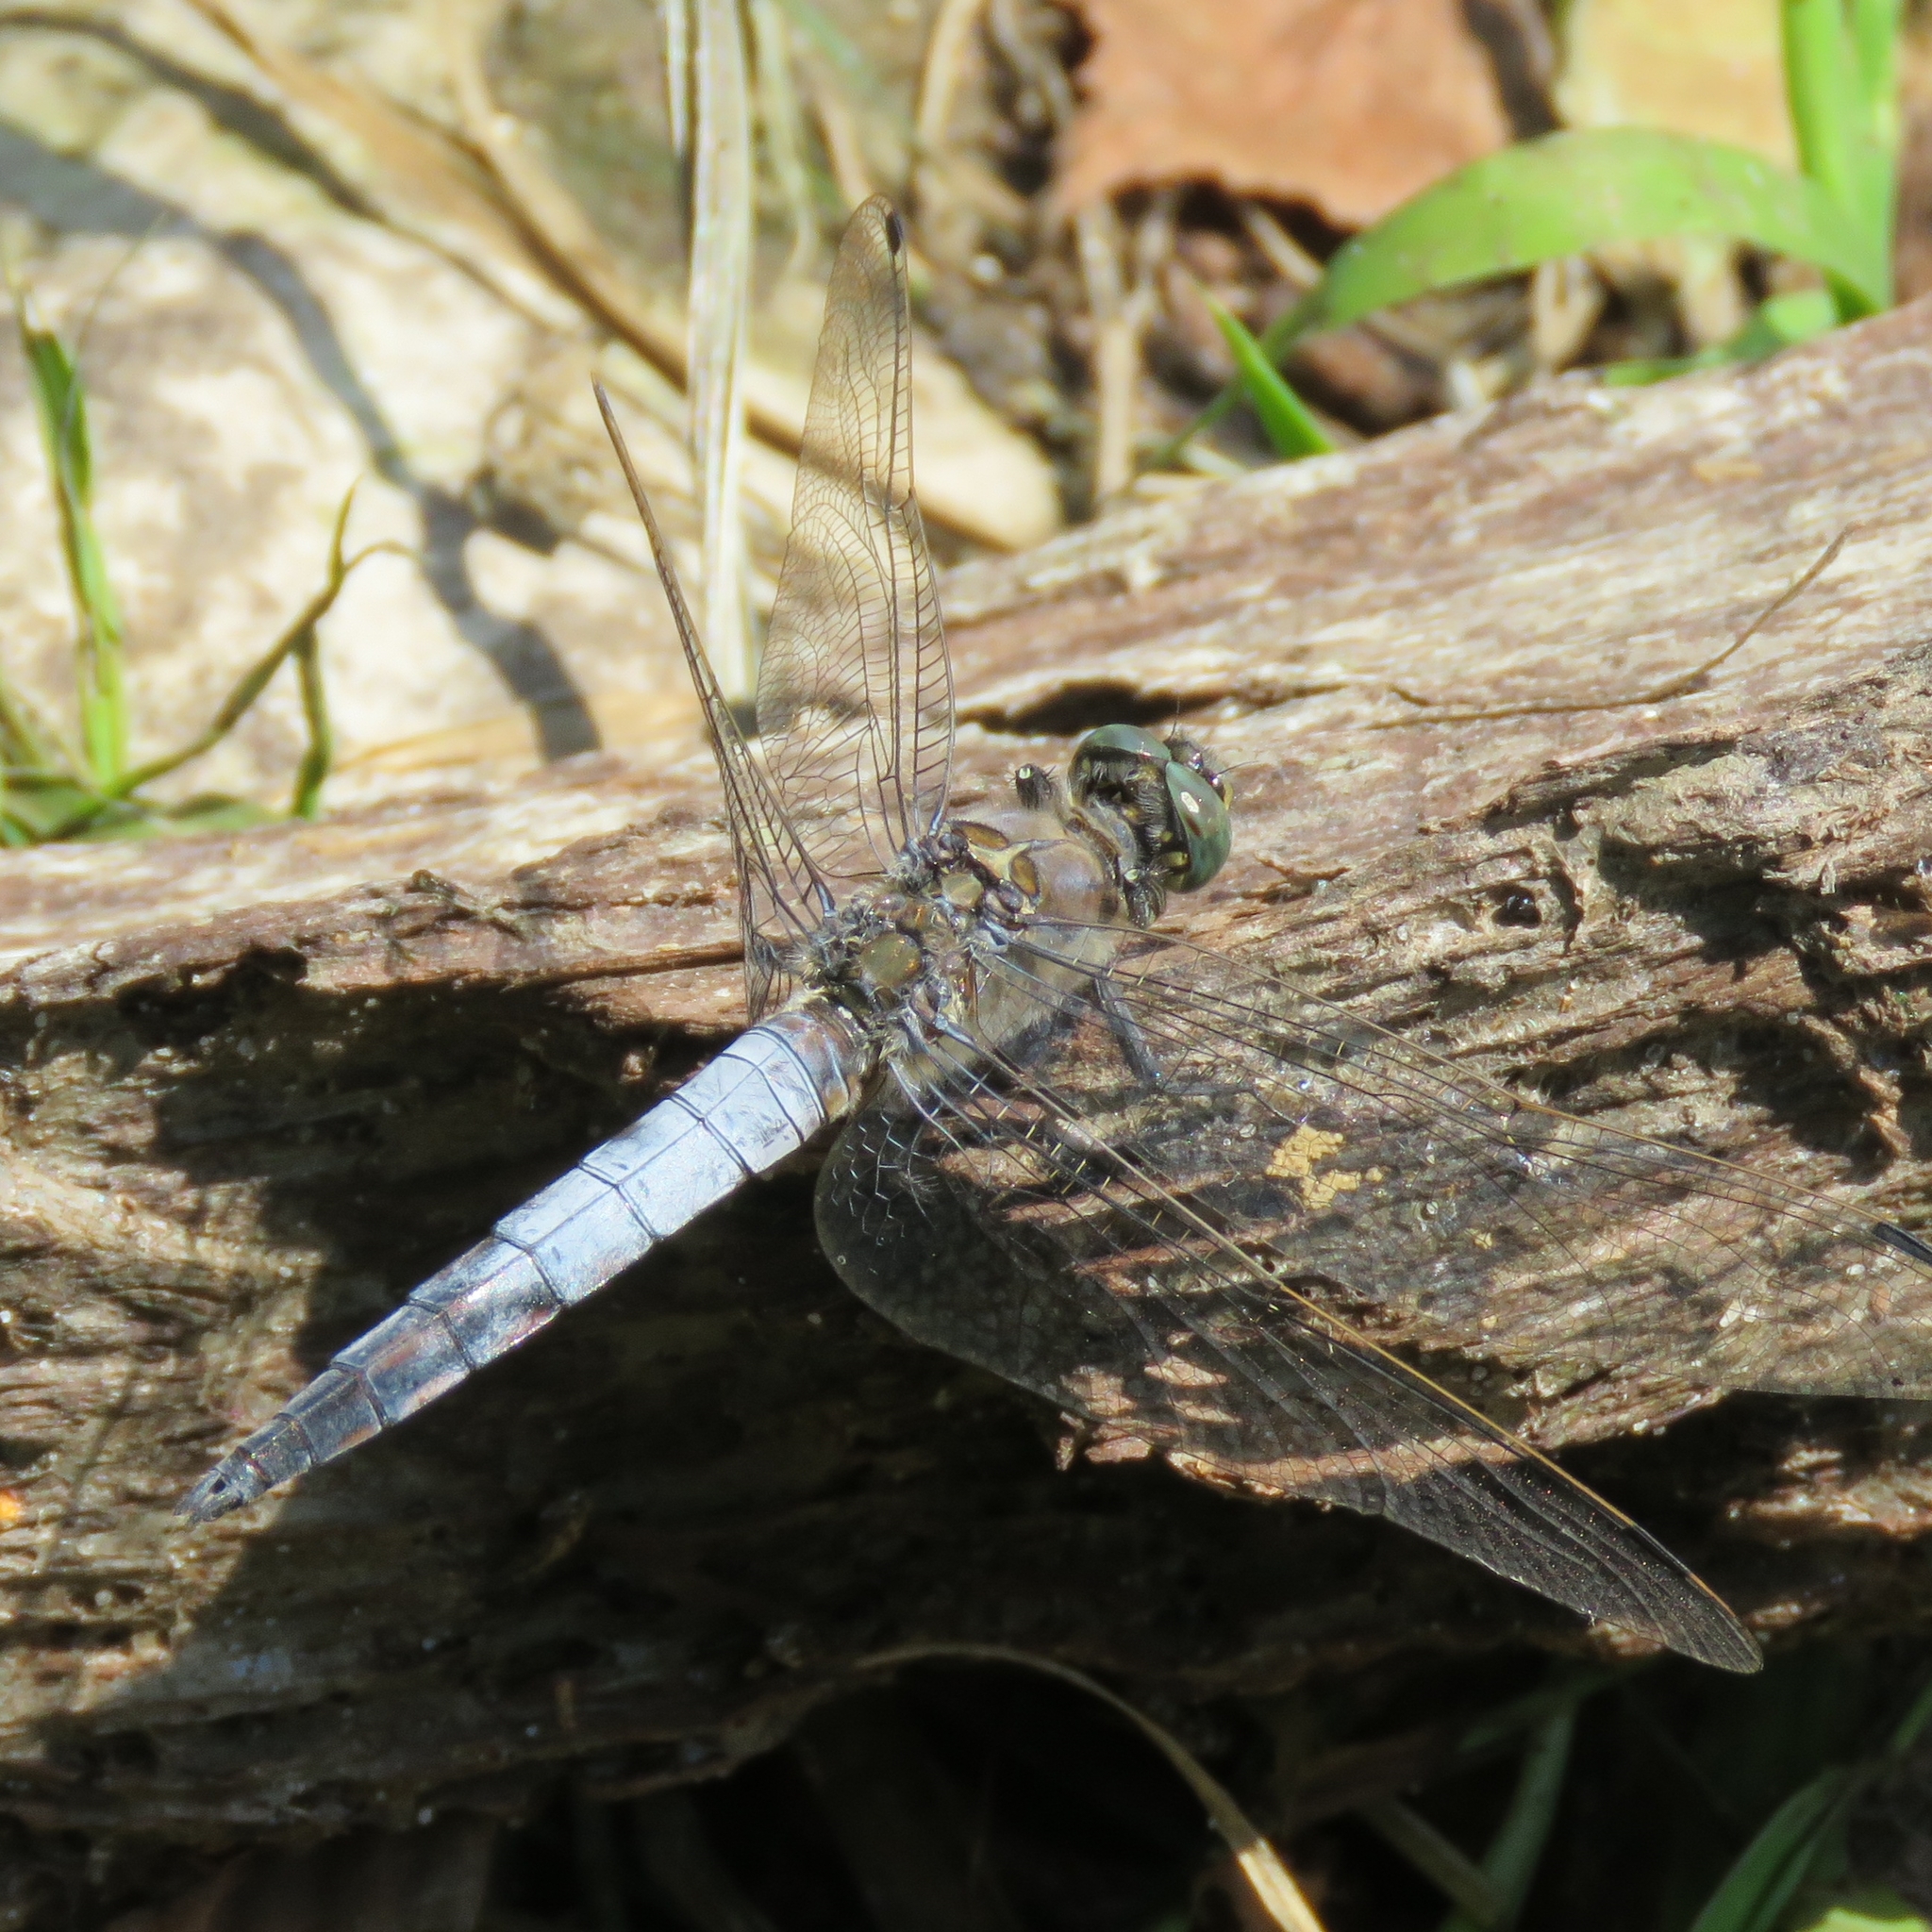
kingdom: Animalia
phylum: Arthropoda
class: Insecta
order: Odonata
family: Libellulidae
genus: Orthetrum
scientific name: Orthetrum cancellatum
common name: Black-tailed skimmer
